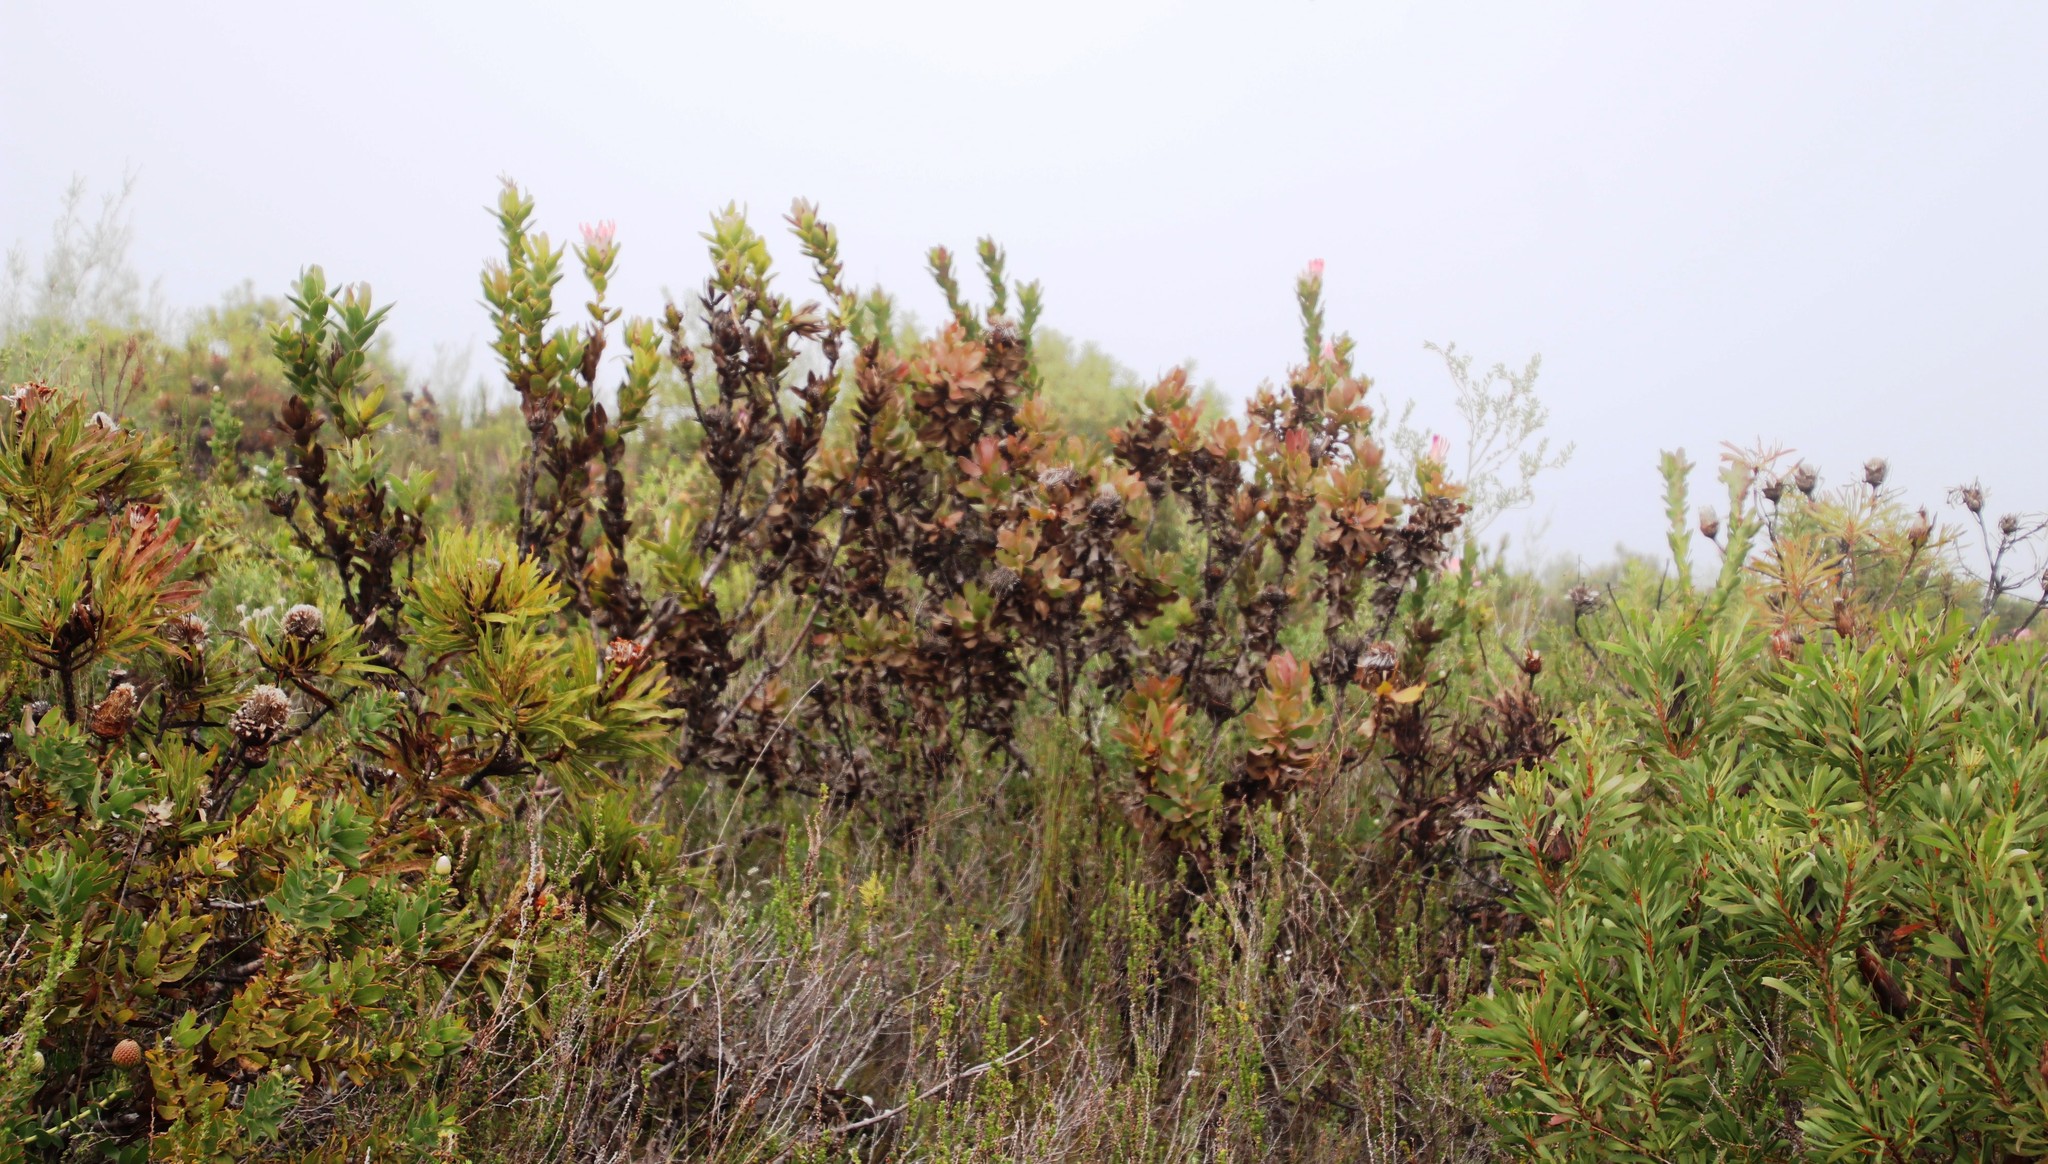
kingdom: Plantae
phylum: Tracheophyta
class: Magnoliopsida
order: Proteales
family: Proteaceae
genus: Protea
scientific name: Protea eximia
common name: Broad-leaved sugarbush
